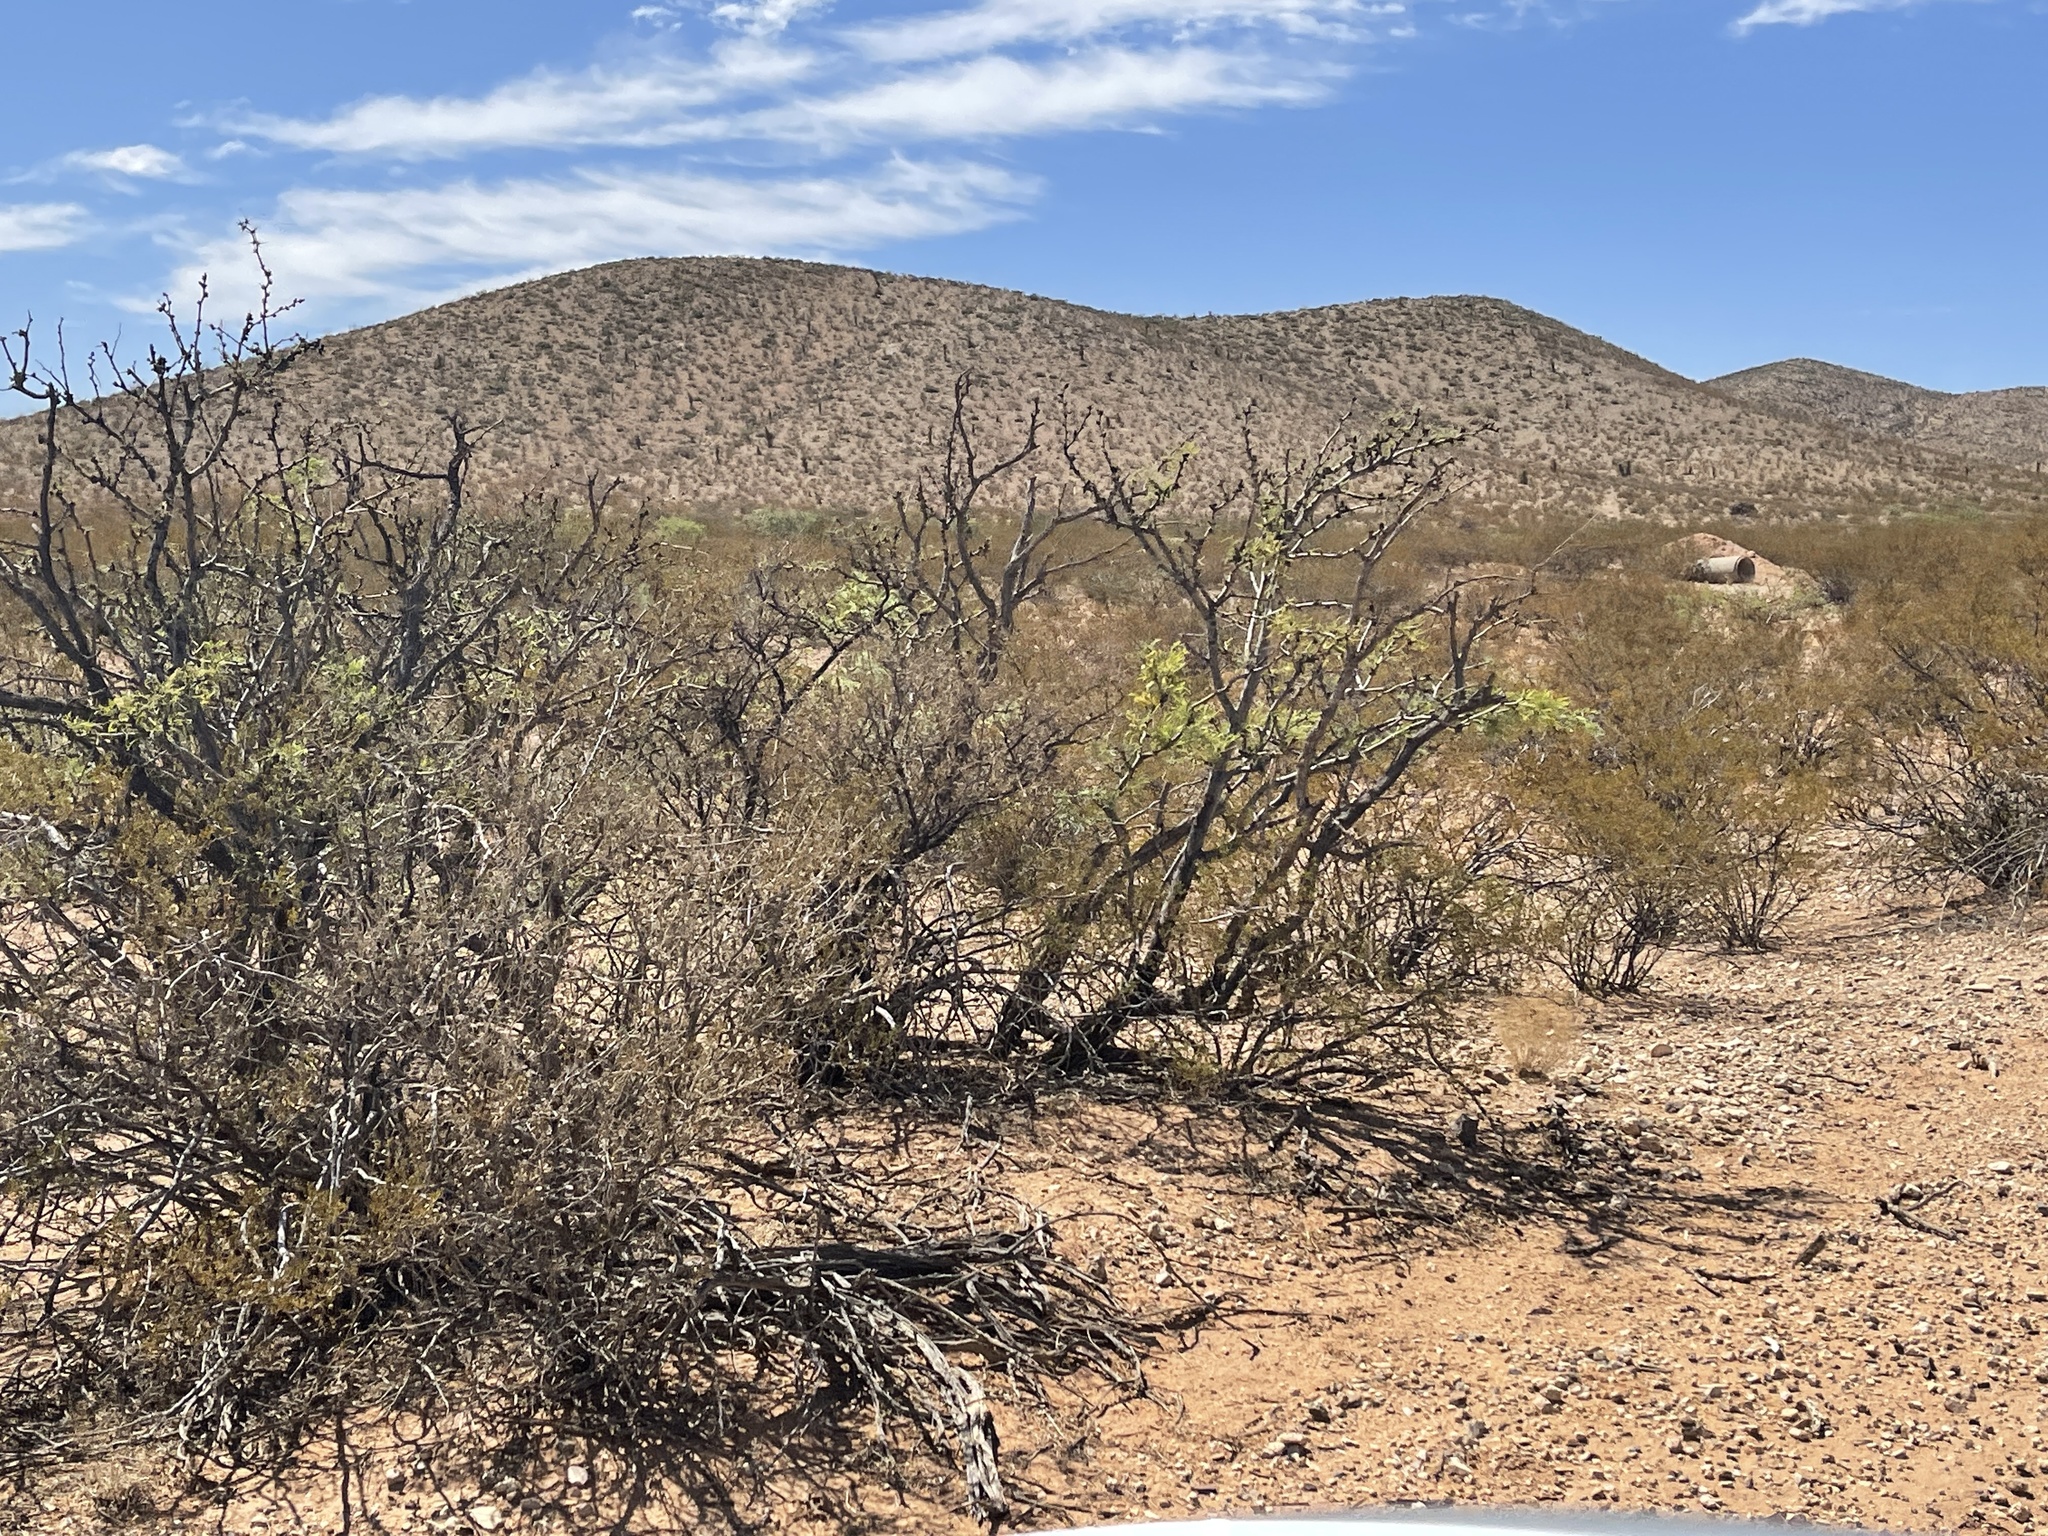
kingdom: Plantae
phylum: Tracheophyta
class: Magnoliopsida
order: Fabales
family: Fabaceae
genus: Prosopis
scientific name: Prosopis glandulosa
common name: Honey mesquite
